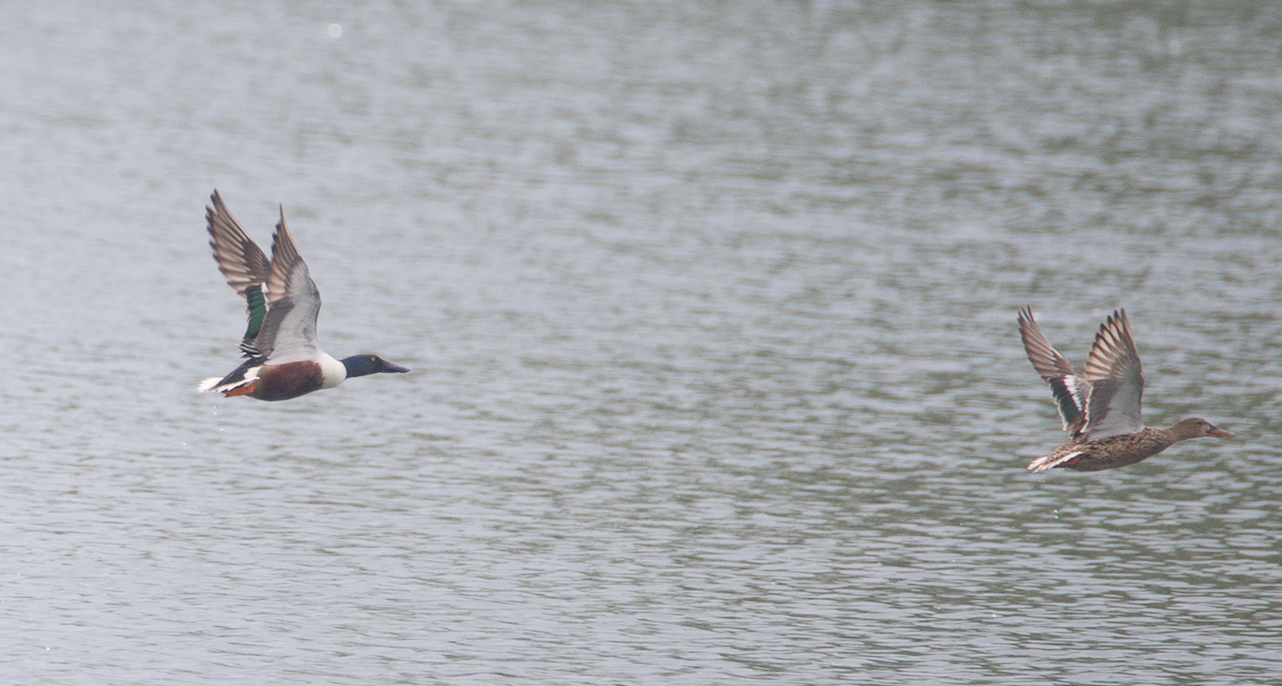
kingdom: Animalia
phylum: Chordata
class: Aves
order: Anseriformes
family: Anatidae
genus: Spatula
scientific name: Spatula clypeata
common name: Northern shoveler
